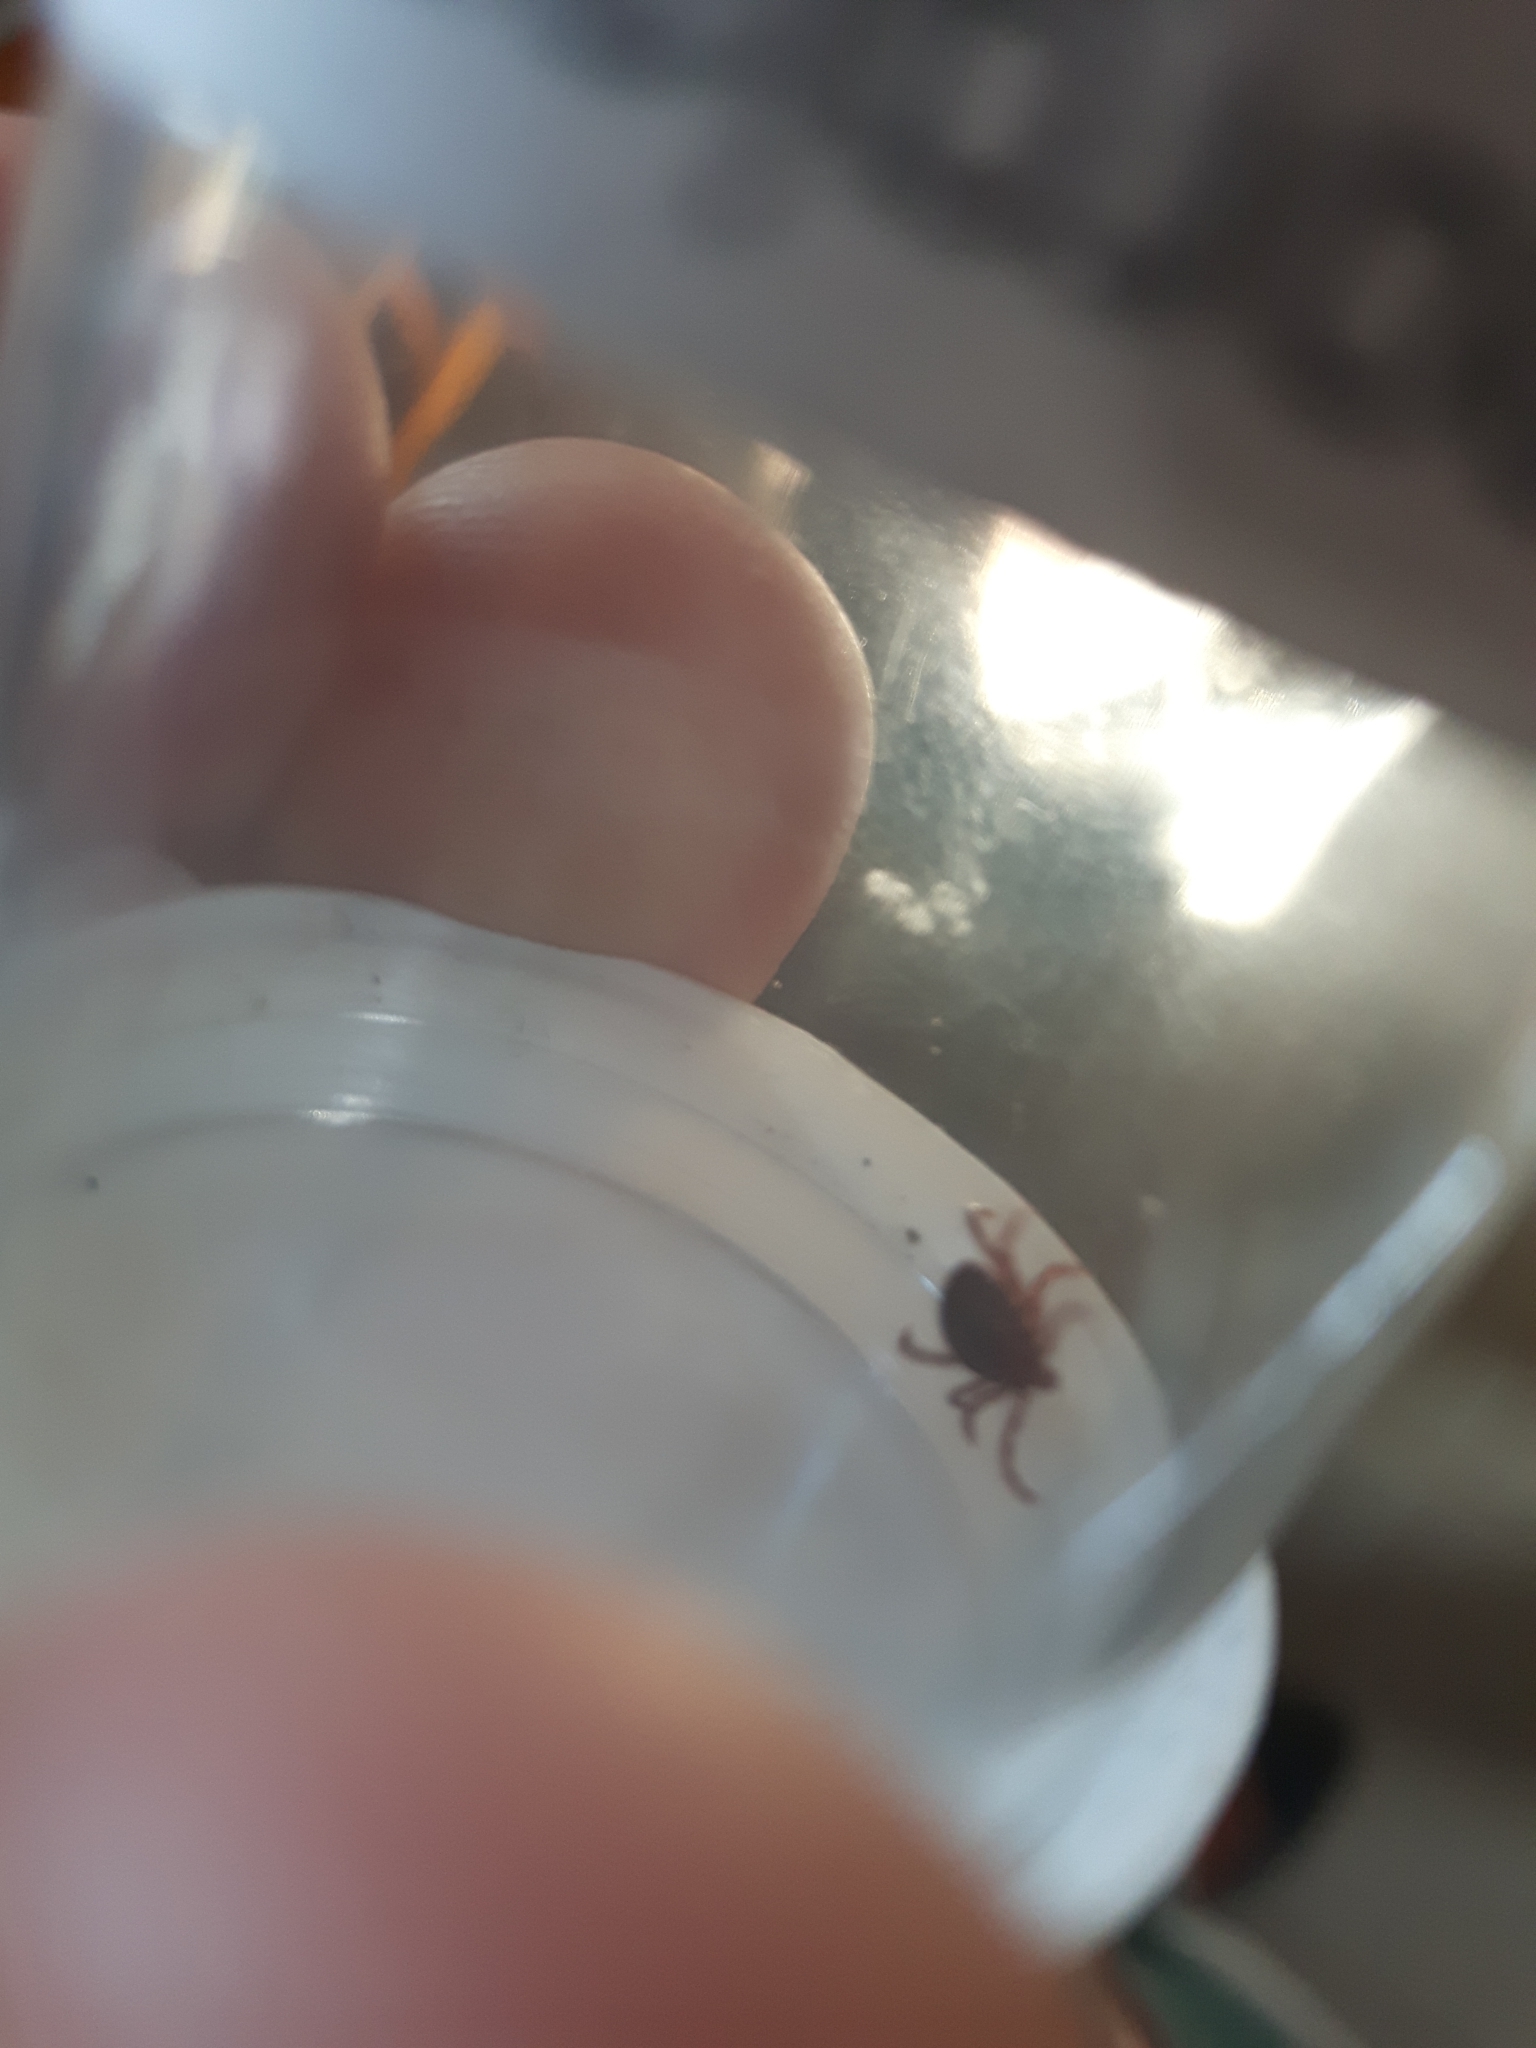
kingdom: Animalia
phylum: Arthropoda
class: Arachnida
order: Ixodida
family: Ixodidae
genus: Dermacentor
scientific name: Dermacentor variabilis
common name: American dog tick
